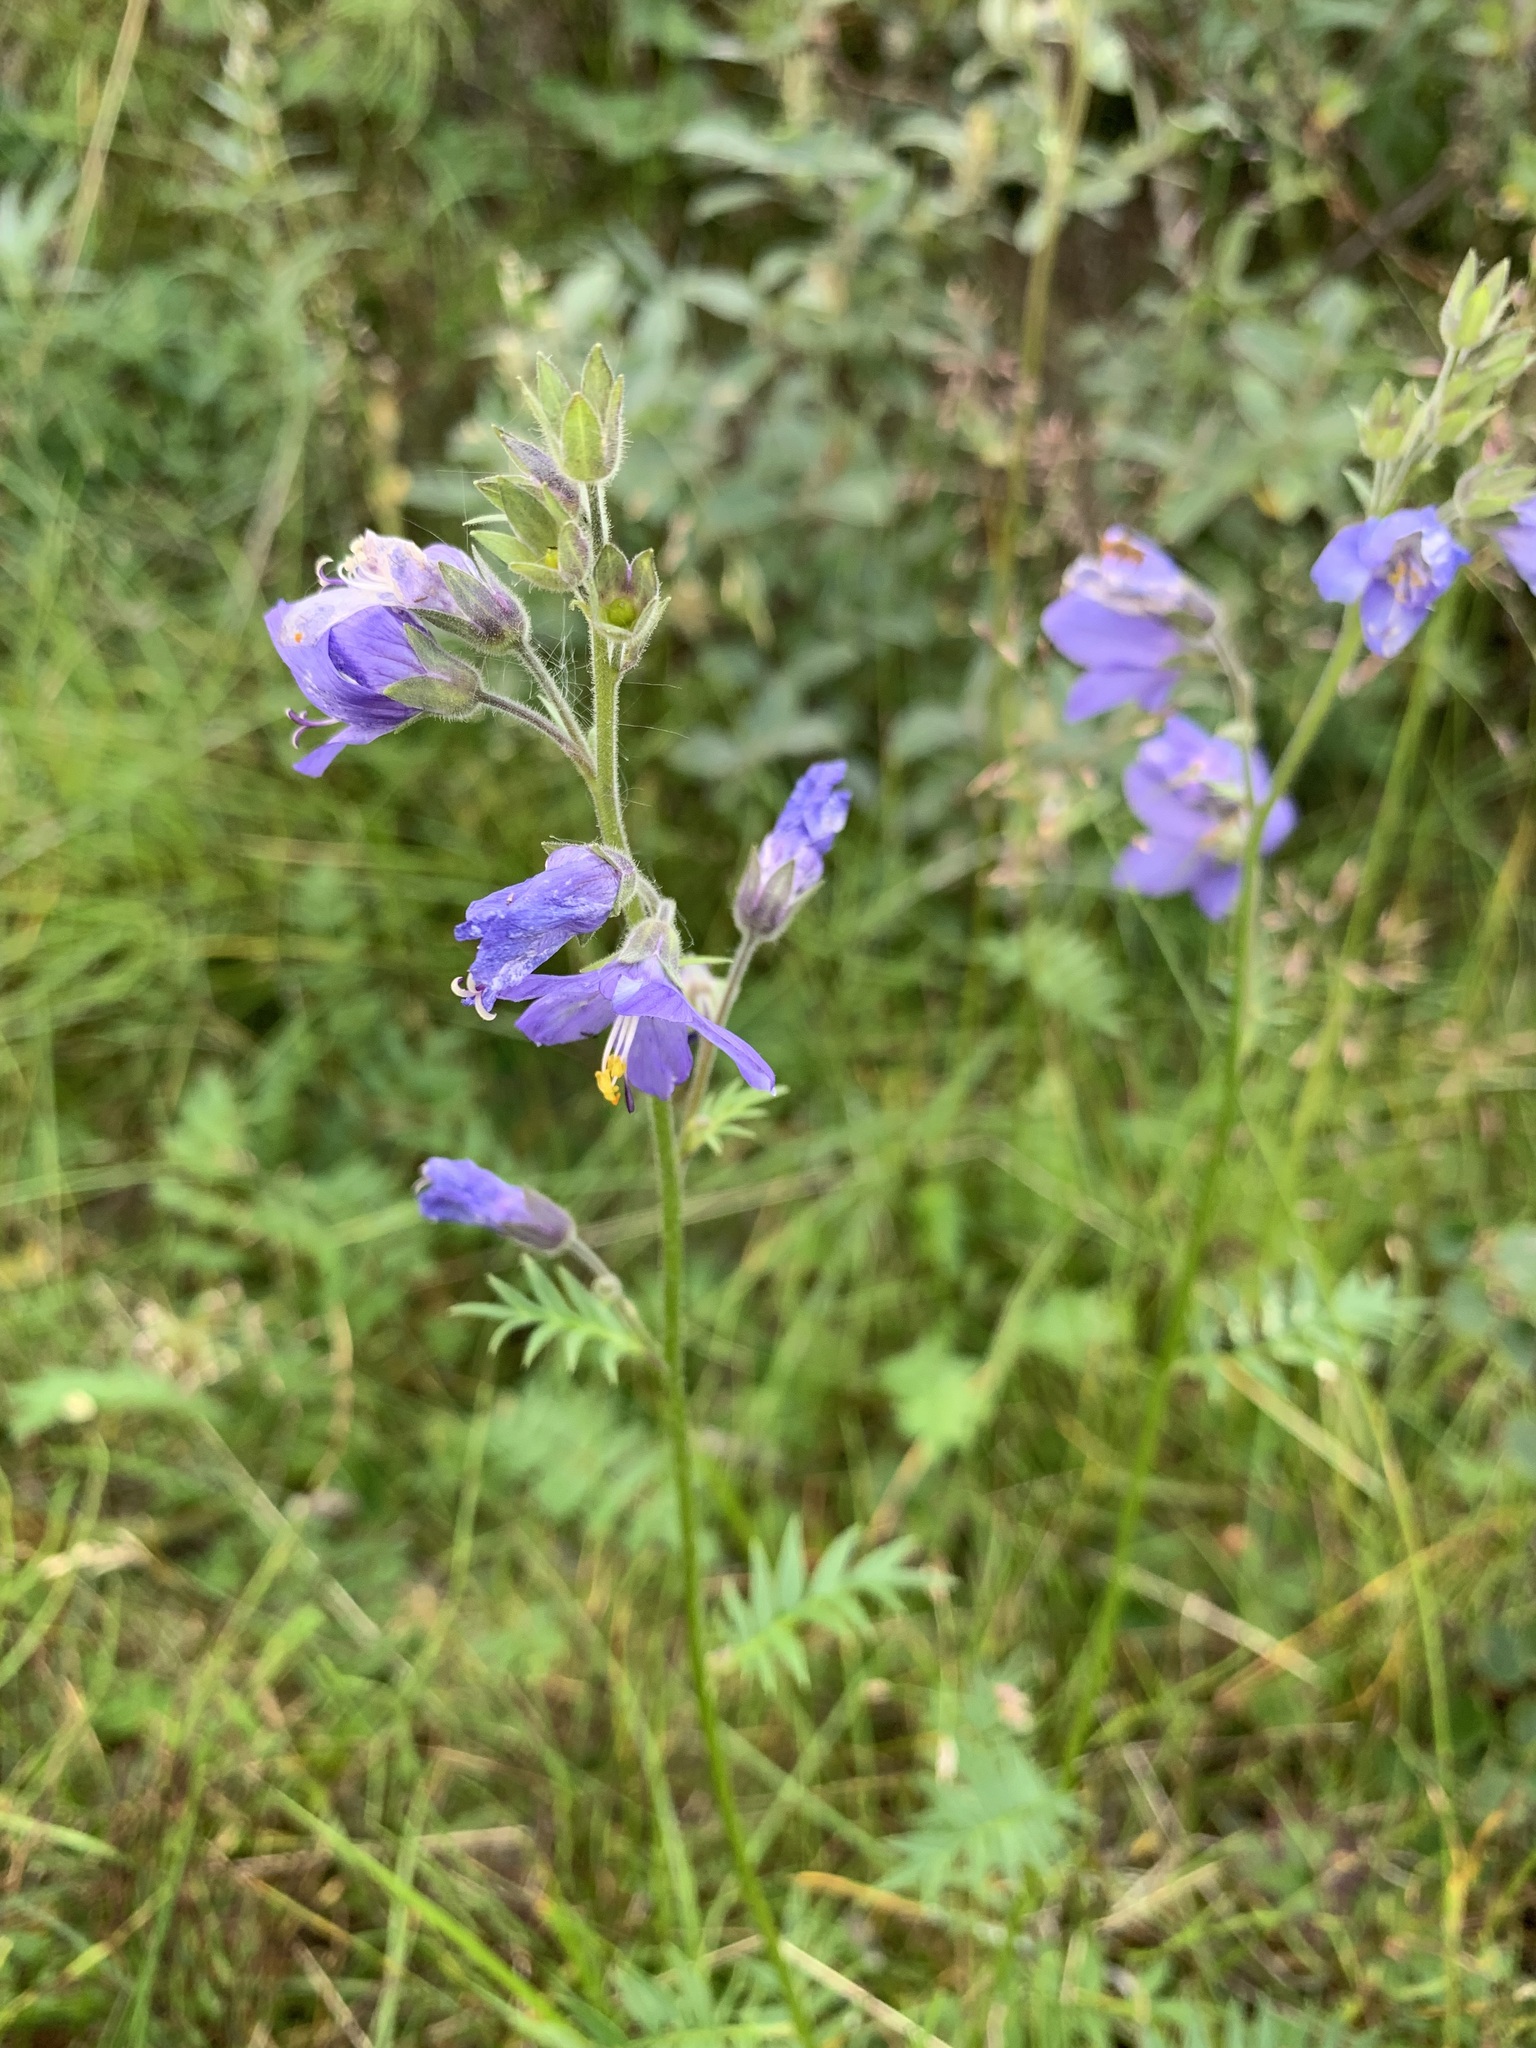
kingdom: Plantae
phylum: Tracheophyta
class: Magnoliopsida
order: Ericales
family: Polemoniaceae
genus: Polemonium
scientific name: Polemonium acutiflorum
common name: Tall jacob's-ladder
